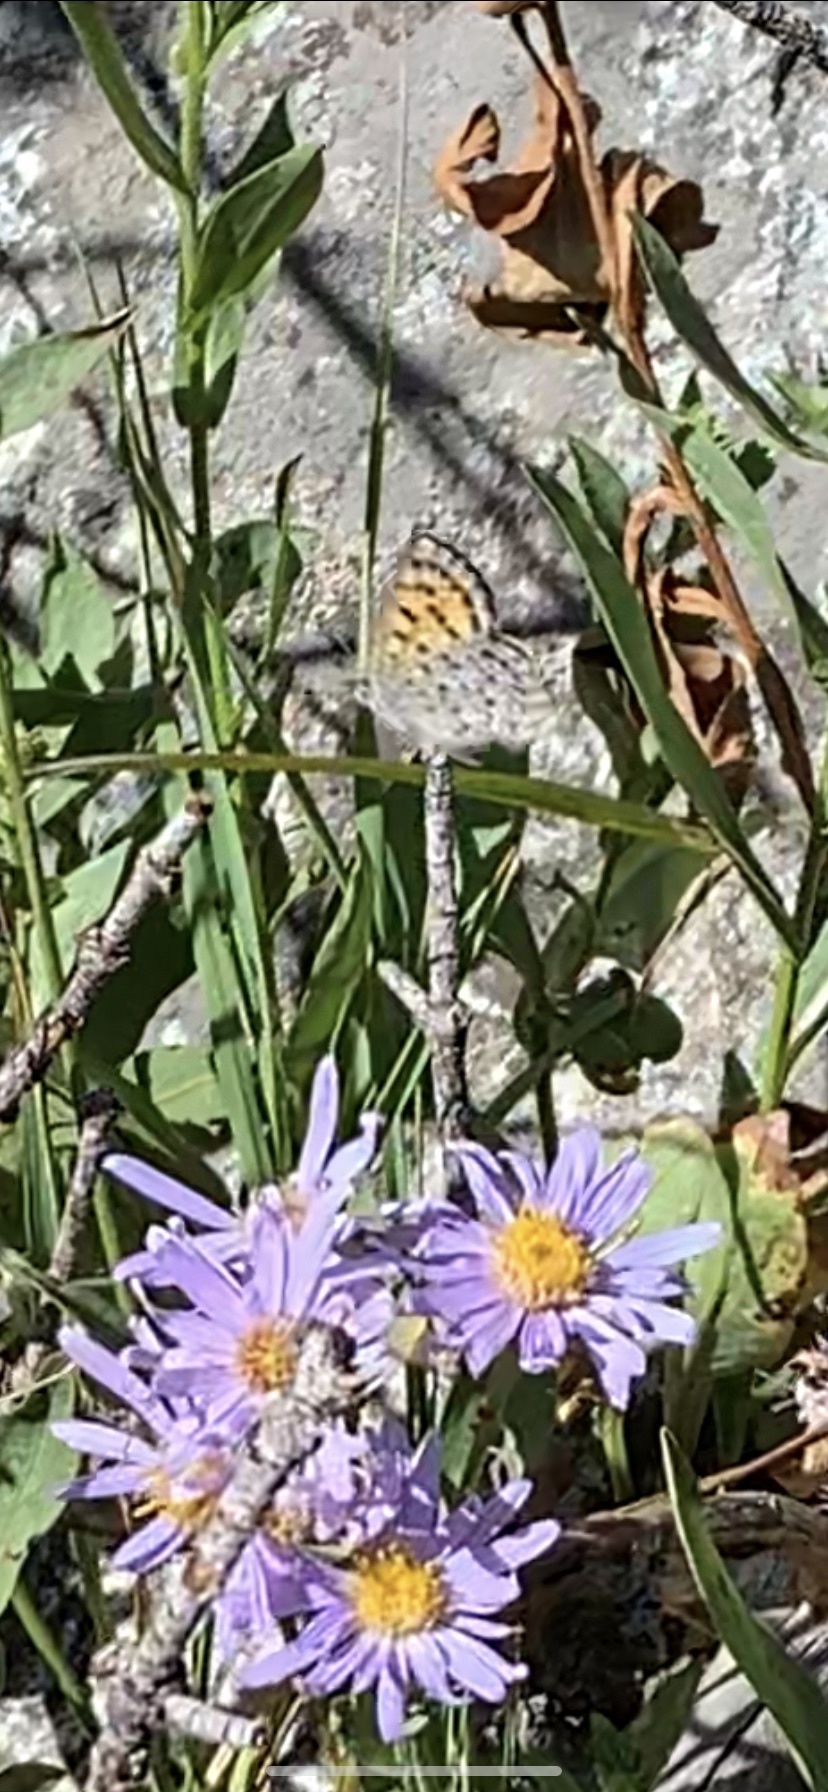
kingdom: Animalia
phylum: Arthropoda
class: Insecta
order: Lepidoptera
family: Lycaenidae
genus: Tharsalea
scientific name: Tharsalea mariposa
